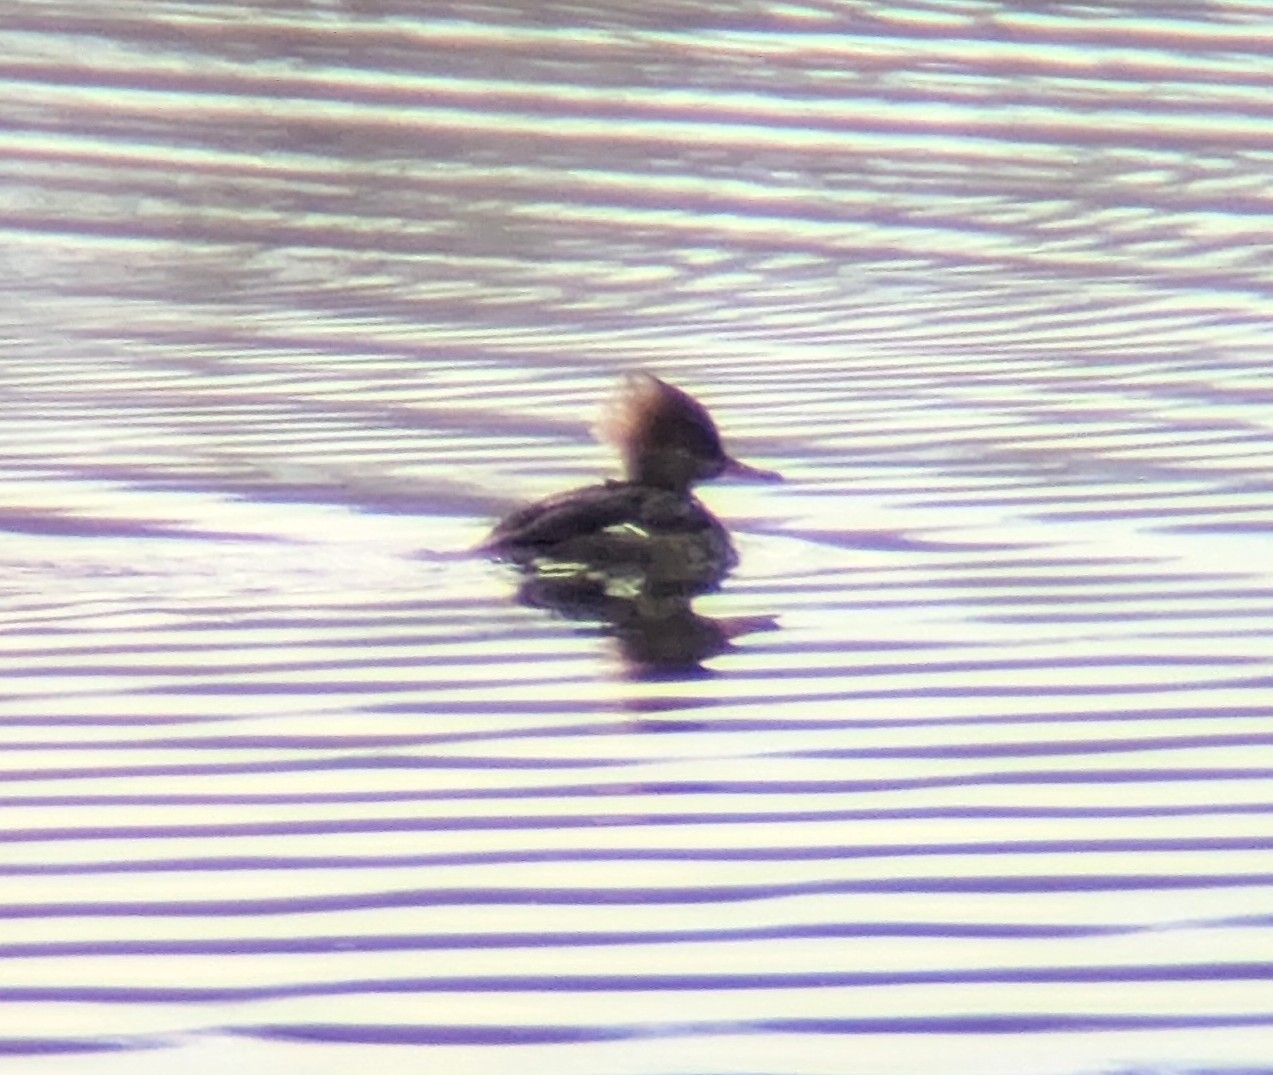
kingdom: Animalia
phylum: Chordata
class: Aves
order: Anseriformes
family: Anatidae
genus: Lophodytes
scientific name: Lophodytes cucullatus
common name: Hooded merganser
